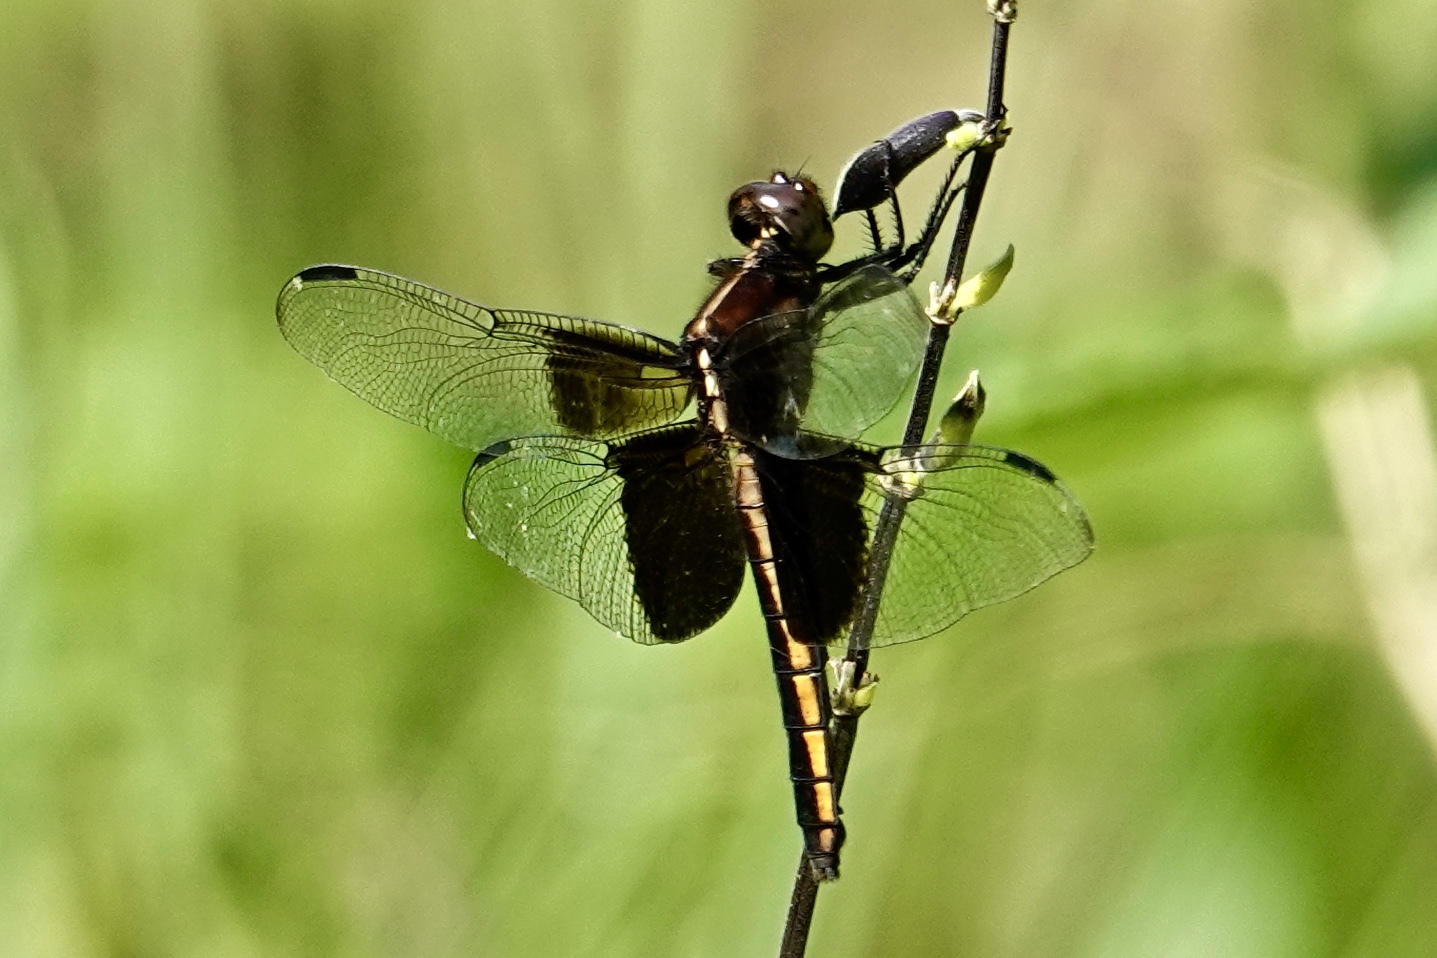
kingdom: Animalia
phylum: Arthropoda
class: Insecta
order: Odonata
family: Libellulidae
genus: Libellula
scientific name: Libellula luctuosa
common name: Widow skimmer
